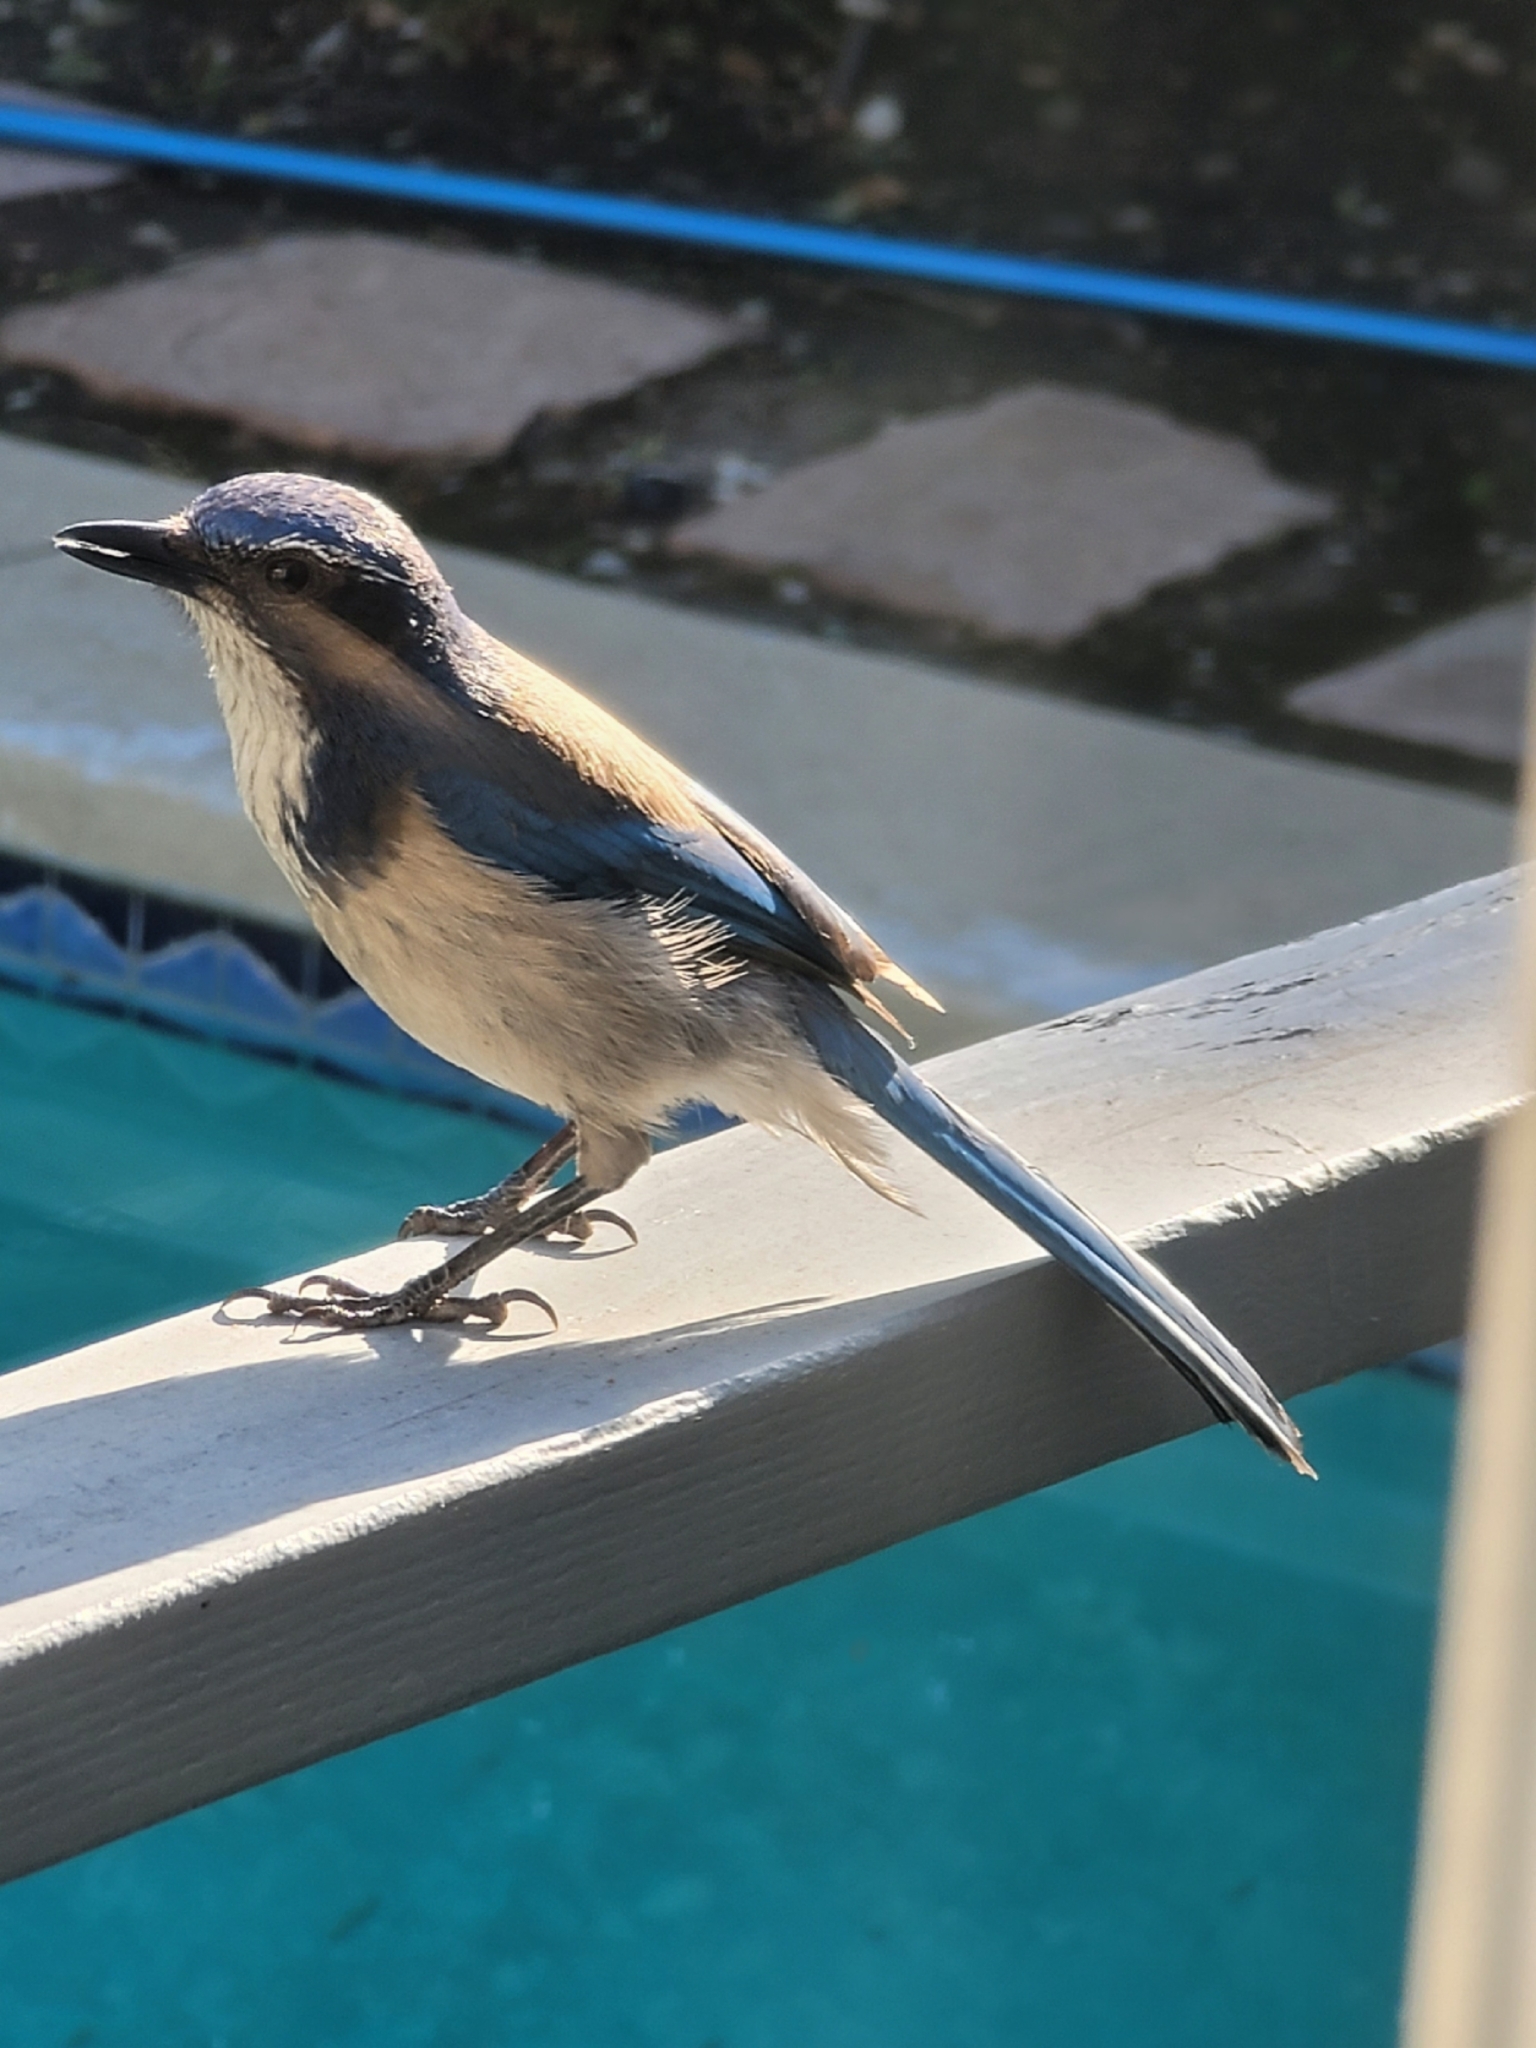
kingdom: Animalia
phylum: Chordata
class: Aves
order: Passeriformes
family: Corvidae
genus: Aphelocoma
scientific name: Aphelocoma californica
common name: California scrub-jay
